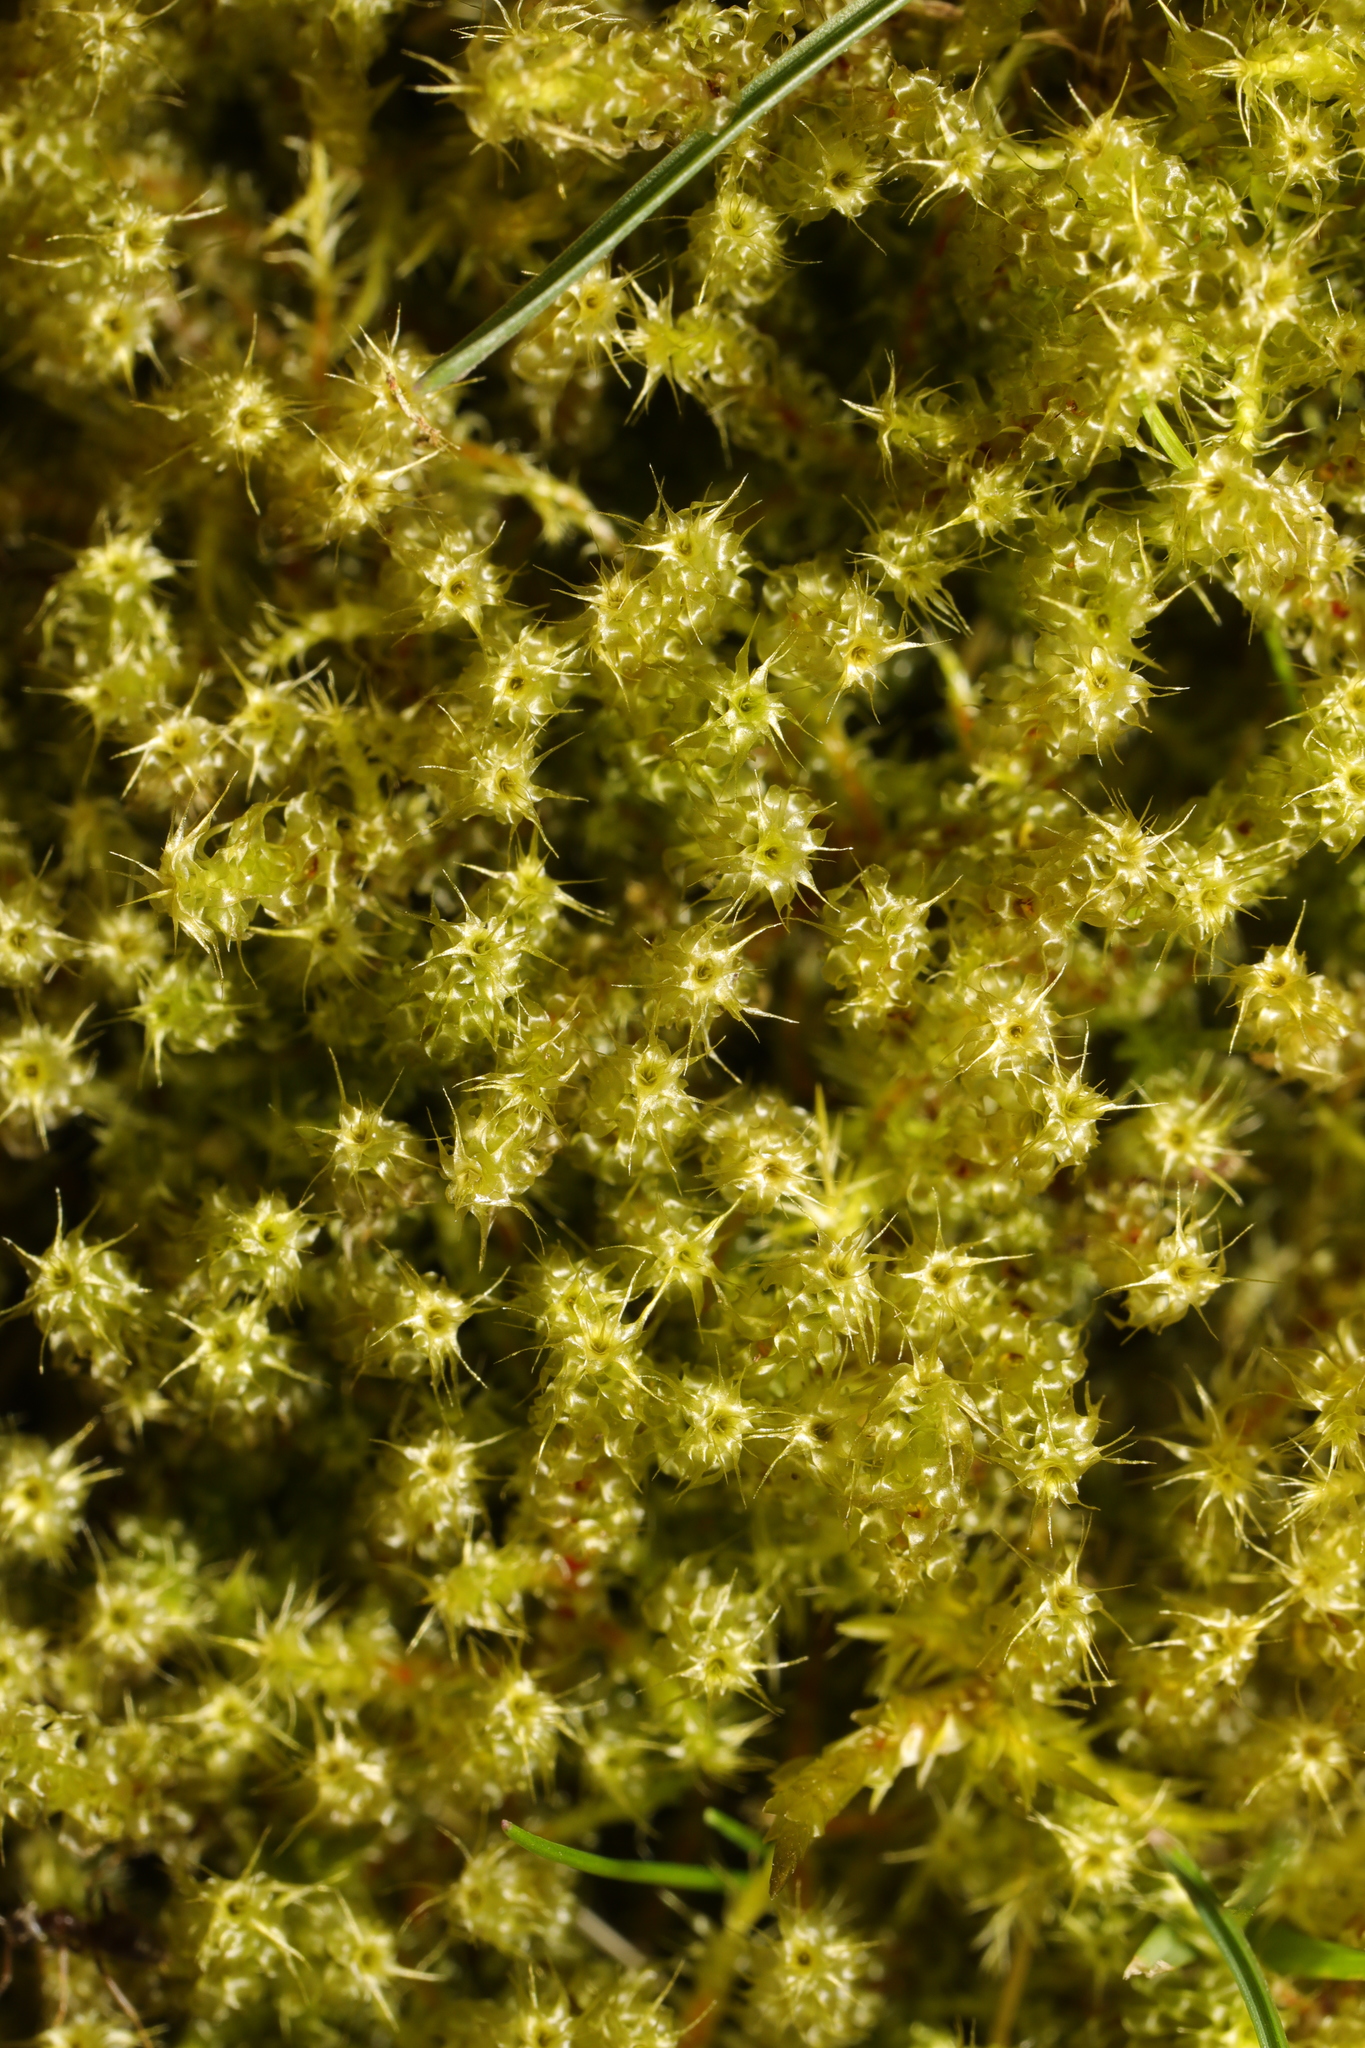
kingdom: Plantae
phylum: Bryophyta
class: Bryopsida
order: Hypnales
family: Hylocomiaceae
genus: Rhytidiadelphus
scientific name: Rhytidiadelphus squarrosus
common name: Springy turf-moss
